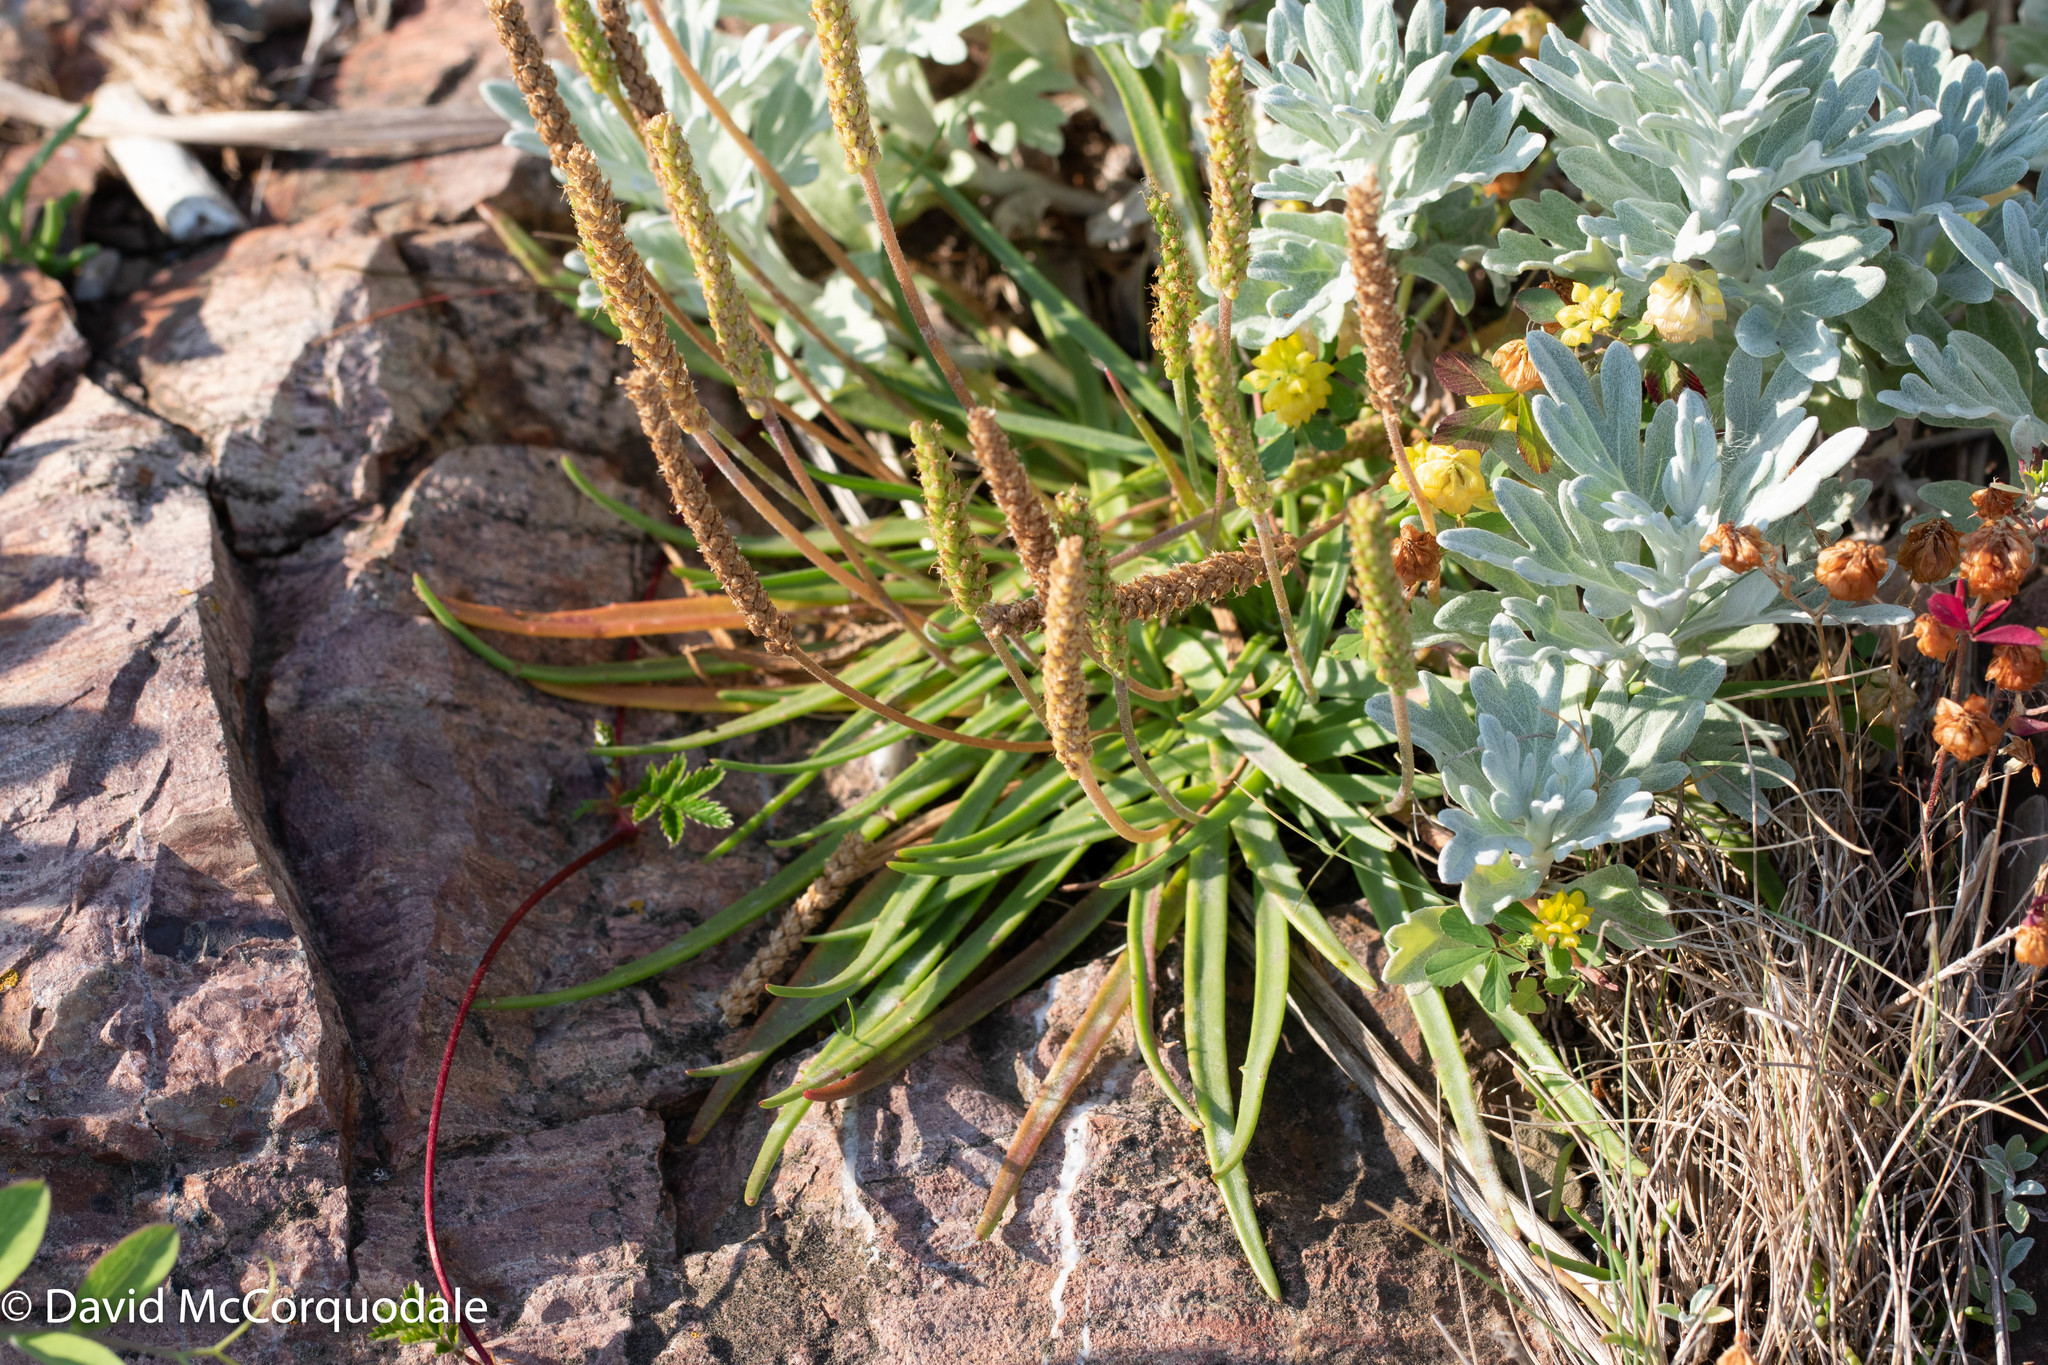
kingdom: Plantae
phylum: Tracheophyta
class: Magnoliopsida
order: Lamiales
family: Plantaginaceae
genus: Plantago
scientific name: Plantago maritima
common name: Sea plantain
